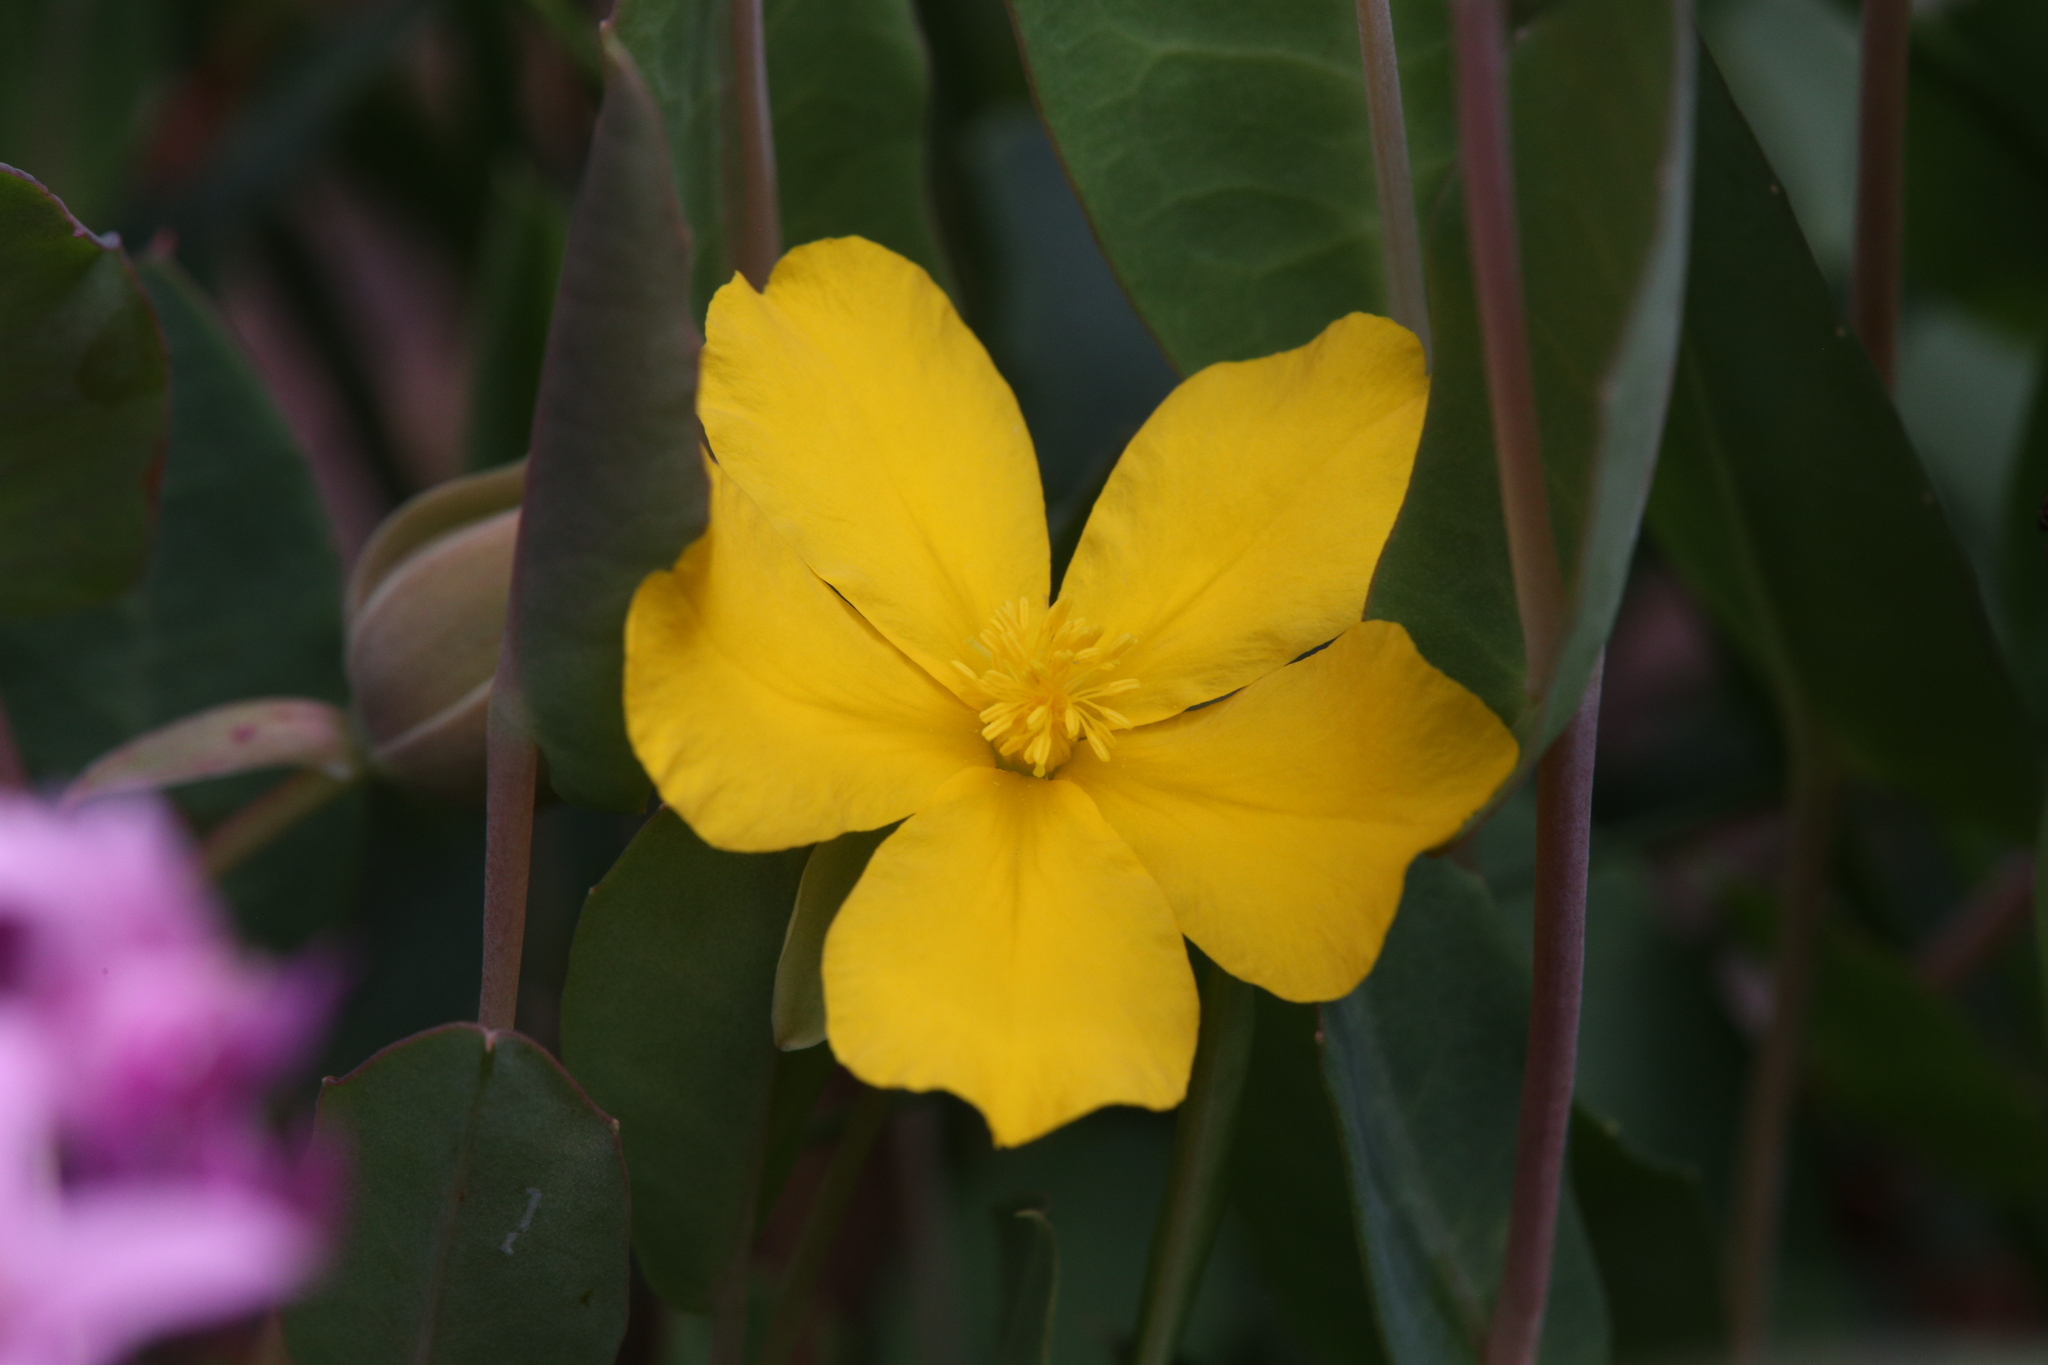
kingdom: Plantae
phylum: Tracheophyta
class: Magnoliopsida
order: Dilleniales
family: Dilleniaceae
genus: Hibbertia
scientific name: Hibbertia amplexicaulis
